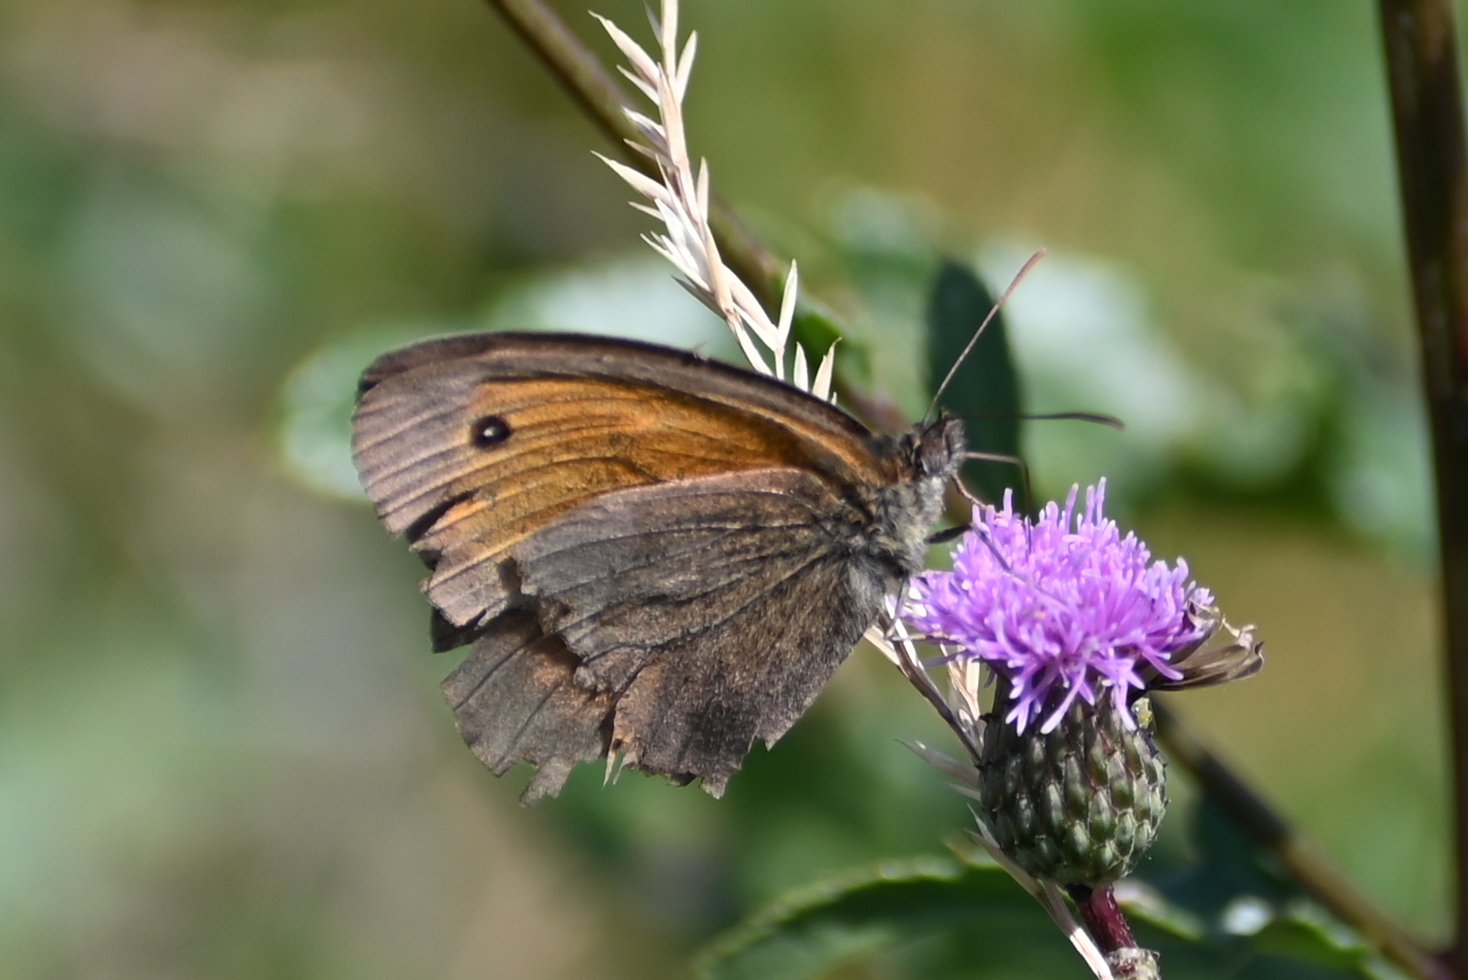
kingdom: Animalia
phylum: Arthropoda
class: Insecta
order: Lepidoptera
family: Nymphalidae
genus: Maniola
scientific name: Maniola jurtina
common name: Meadow brown
